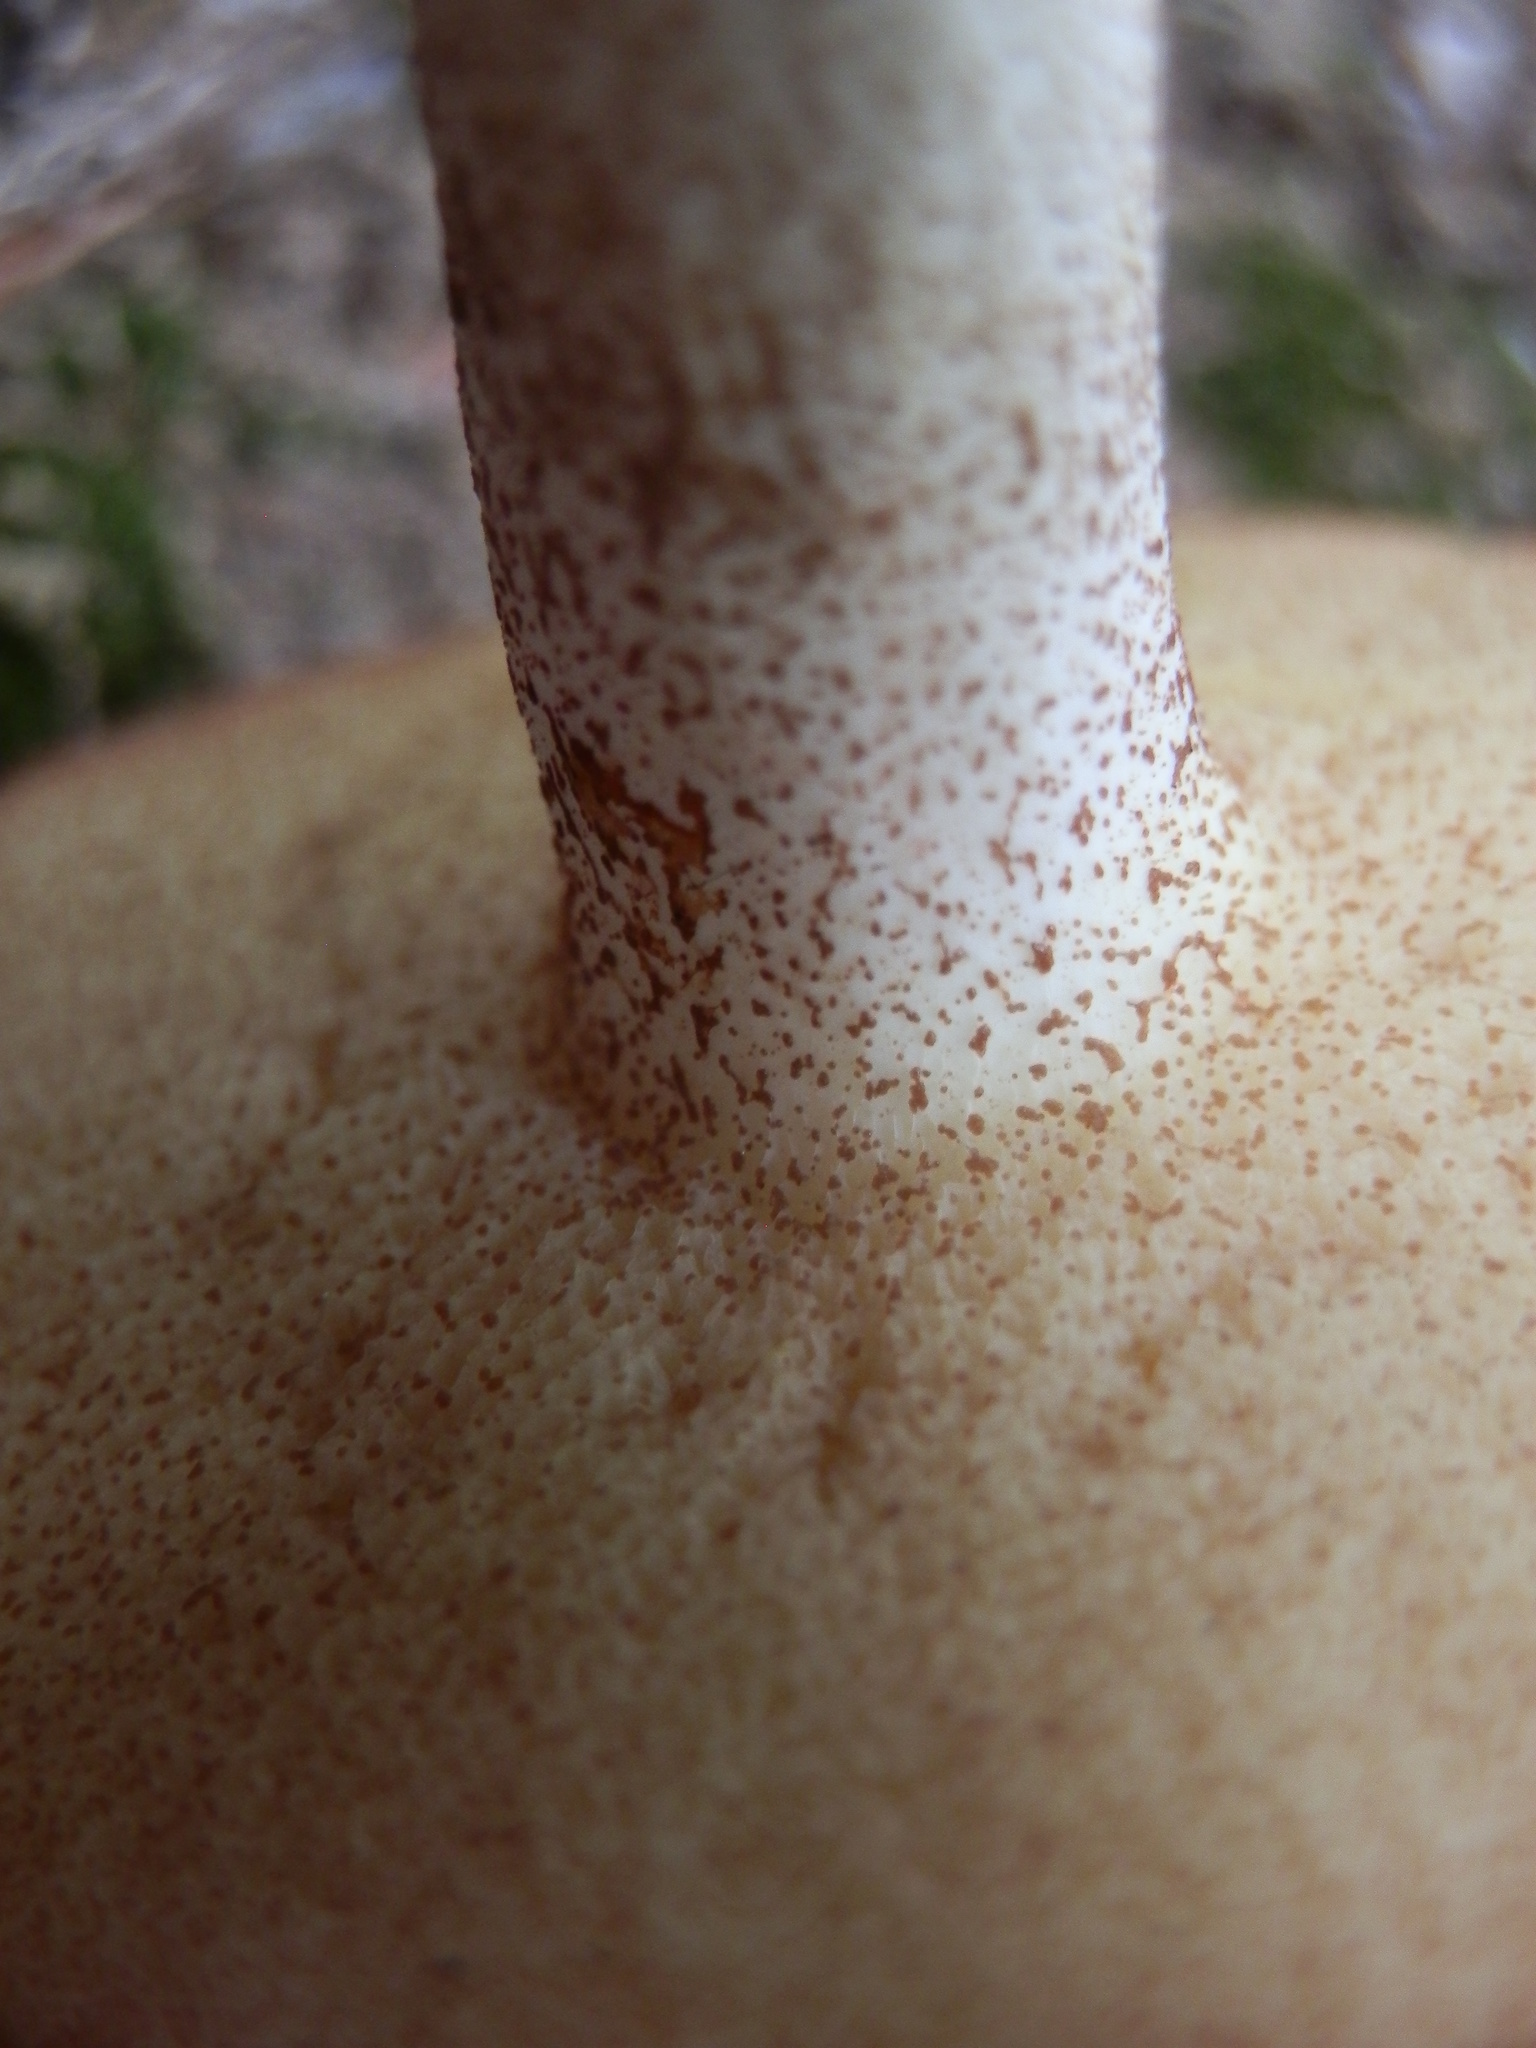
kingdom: Fungi
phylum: Basidiomycota
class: Agaricomycetes
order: Boletales
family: Suillaceae
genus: Fuscoboletinus
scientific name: Fuscoboletinus weaverae
